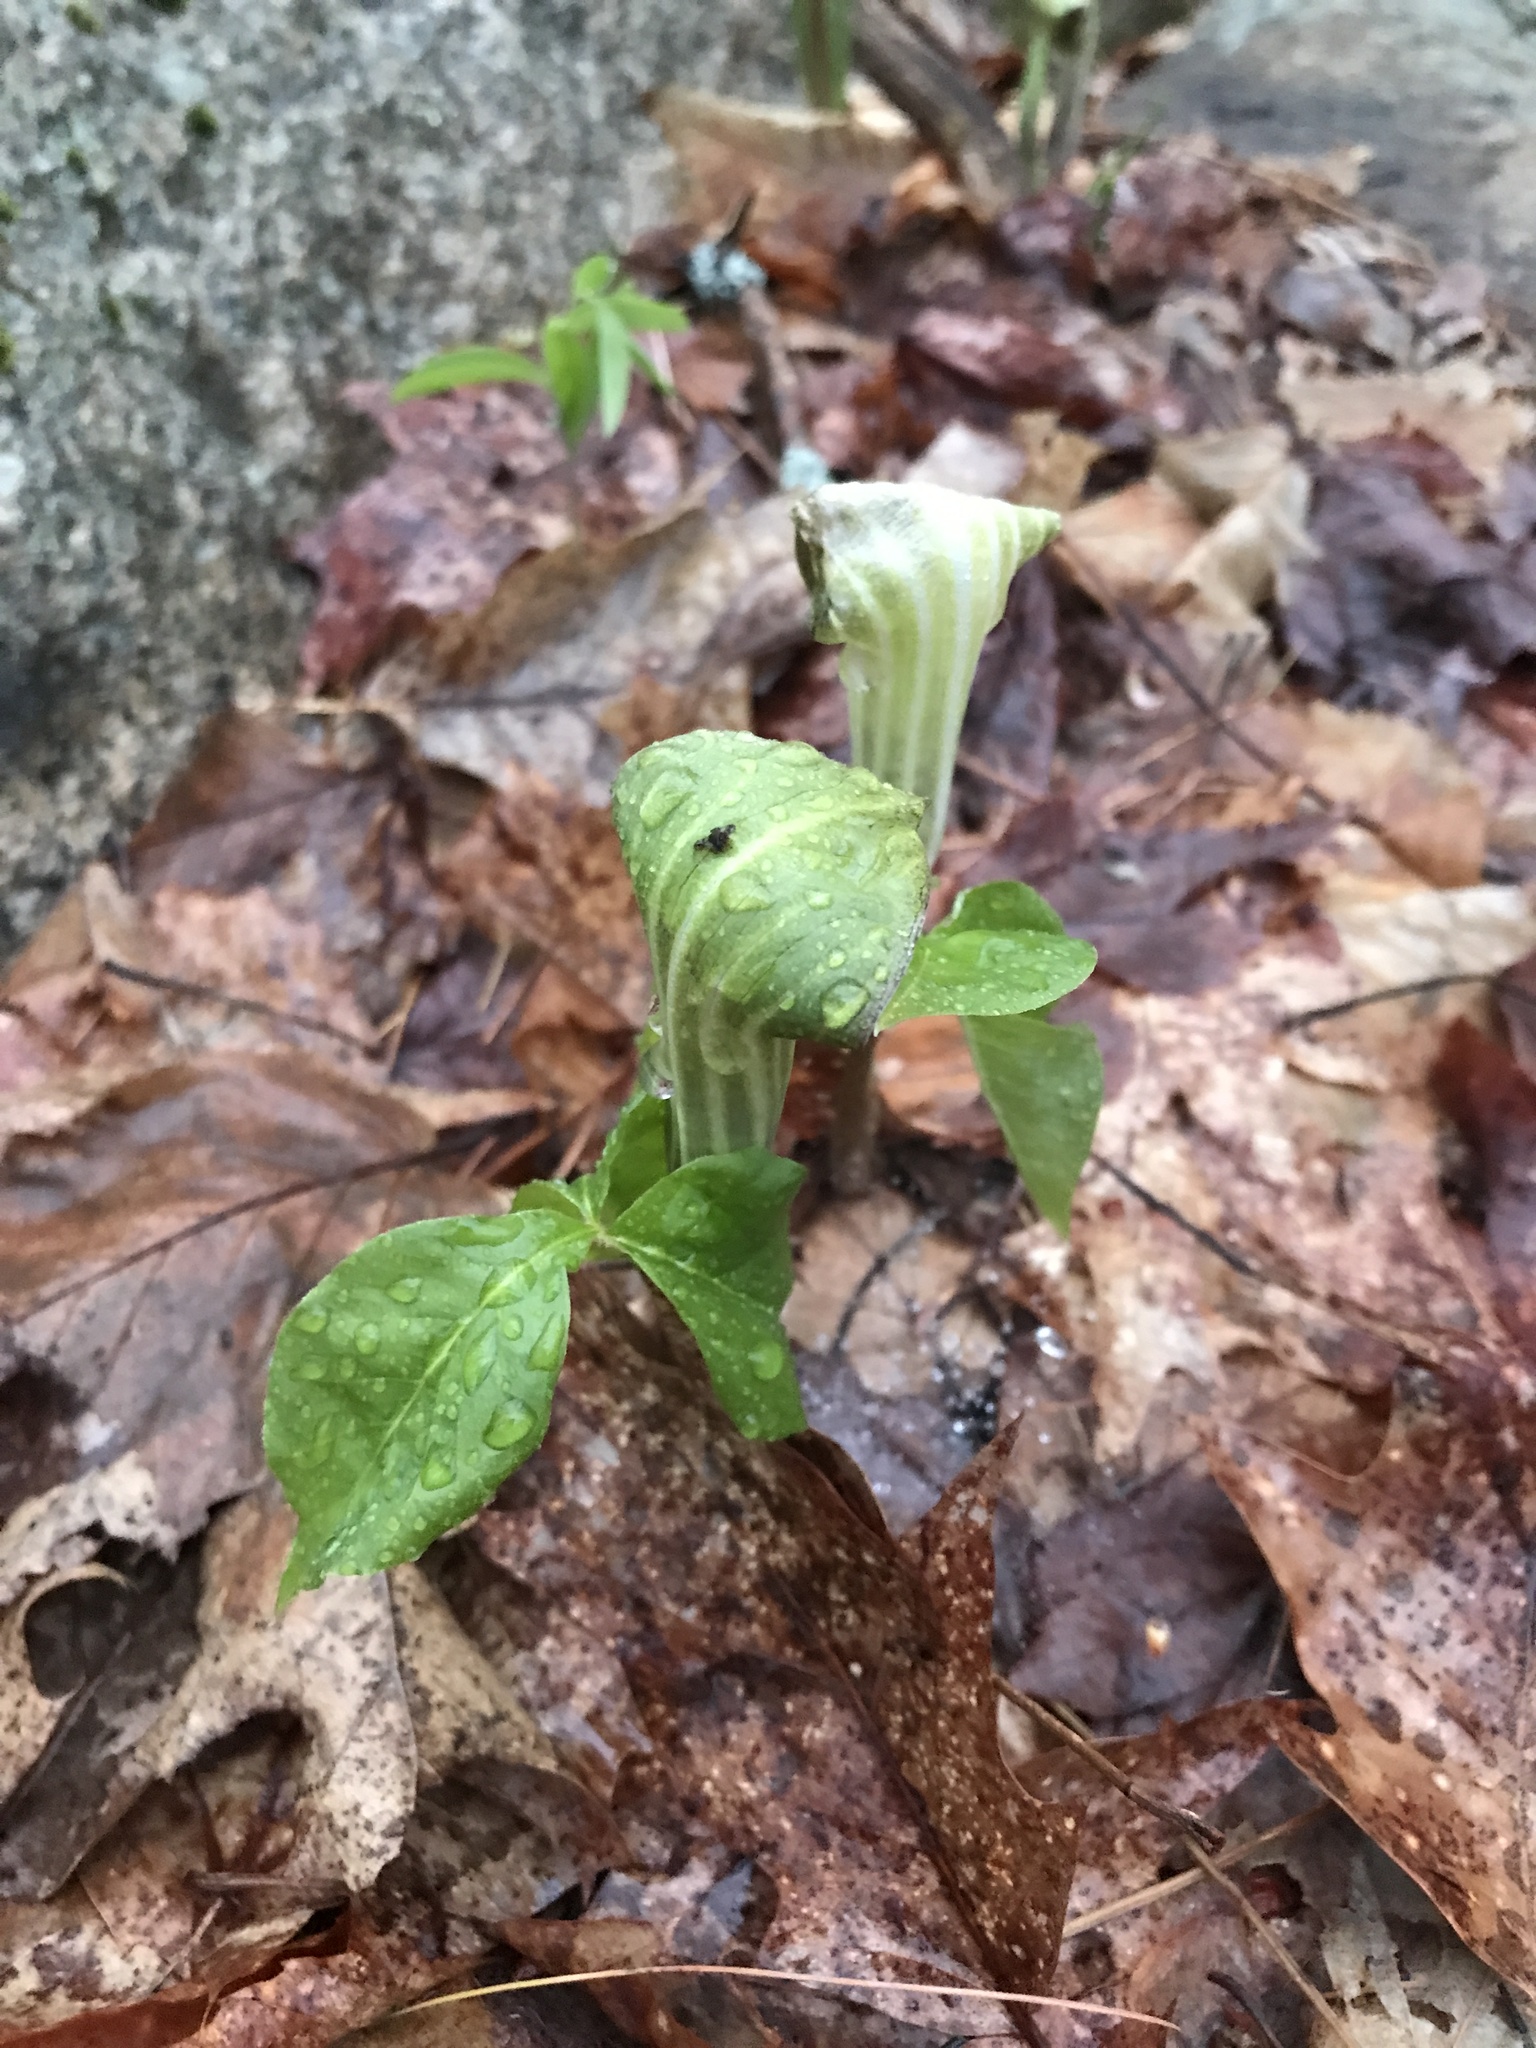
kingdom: Plantae
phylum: Tracheophyta
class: Liliopsida
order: Alismatales
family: Araceae
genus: Arisaema
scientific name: Arisaema triphyllum
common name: Jack-in-the-pulpit
